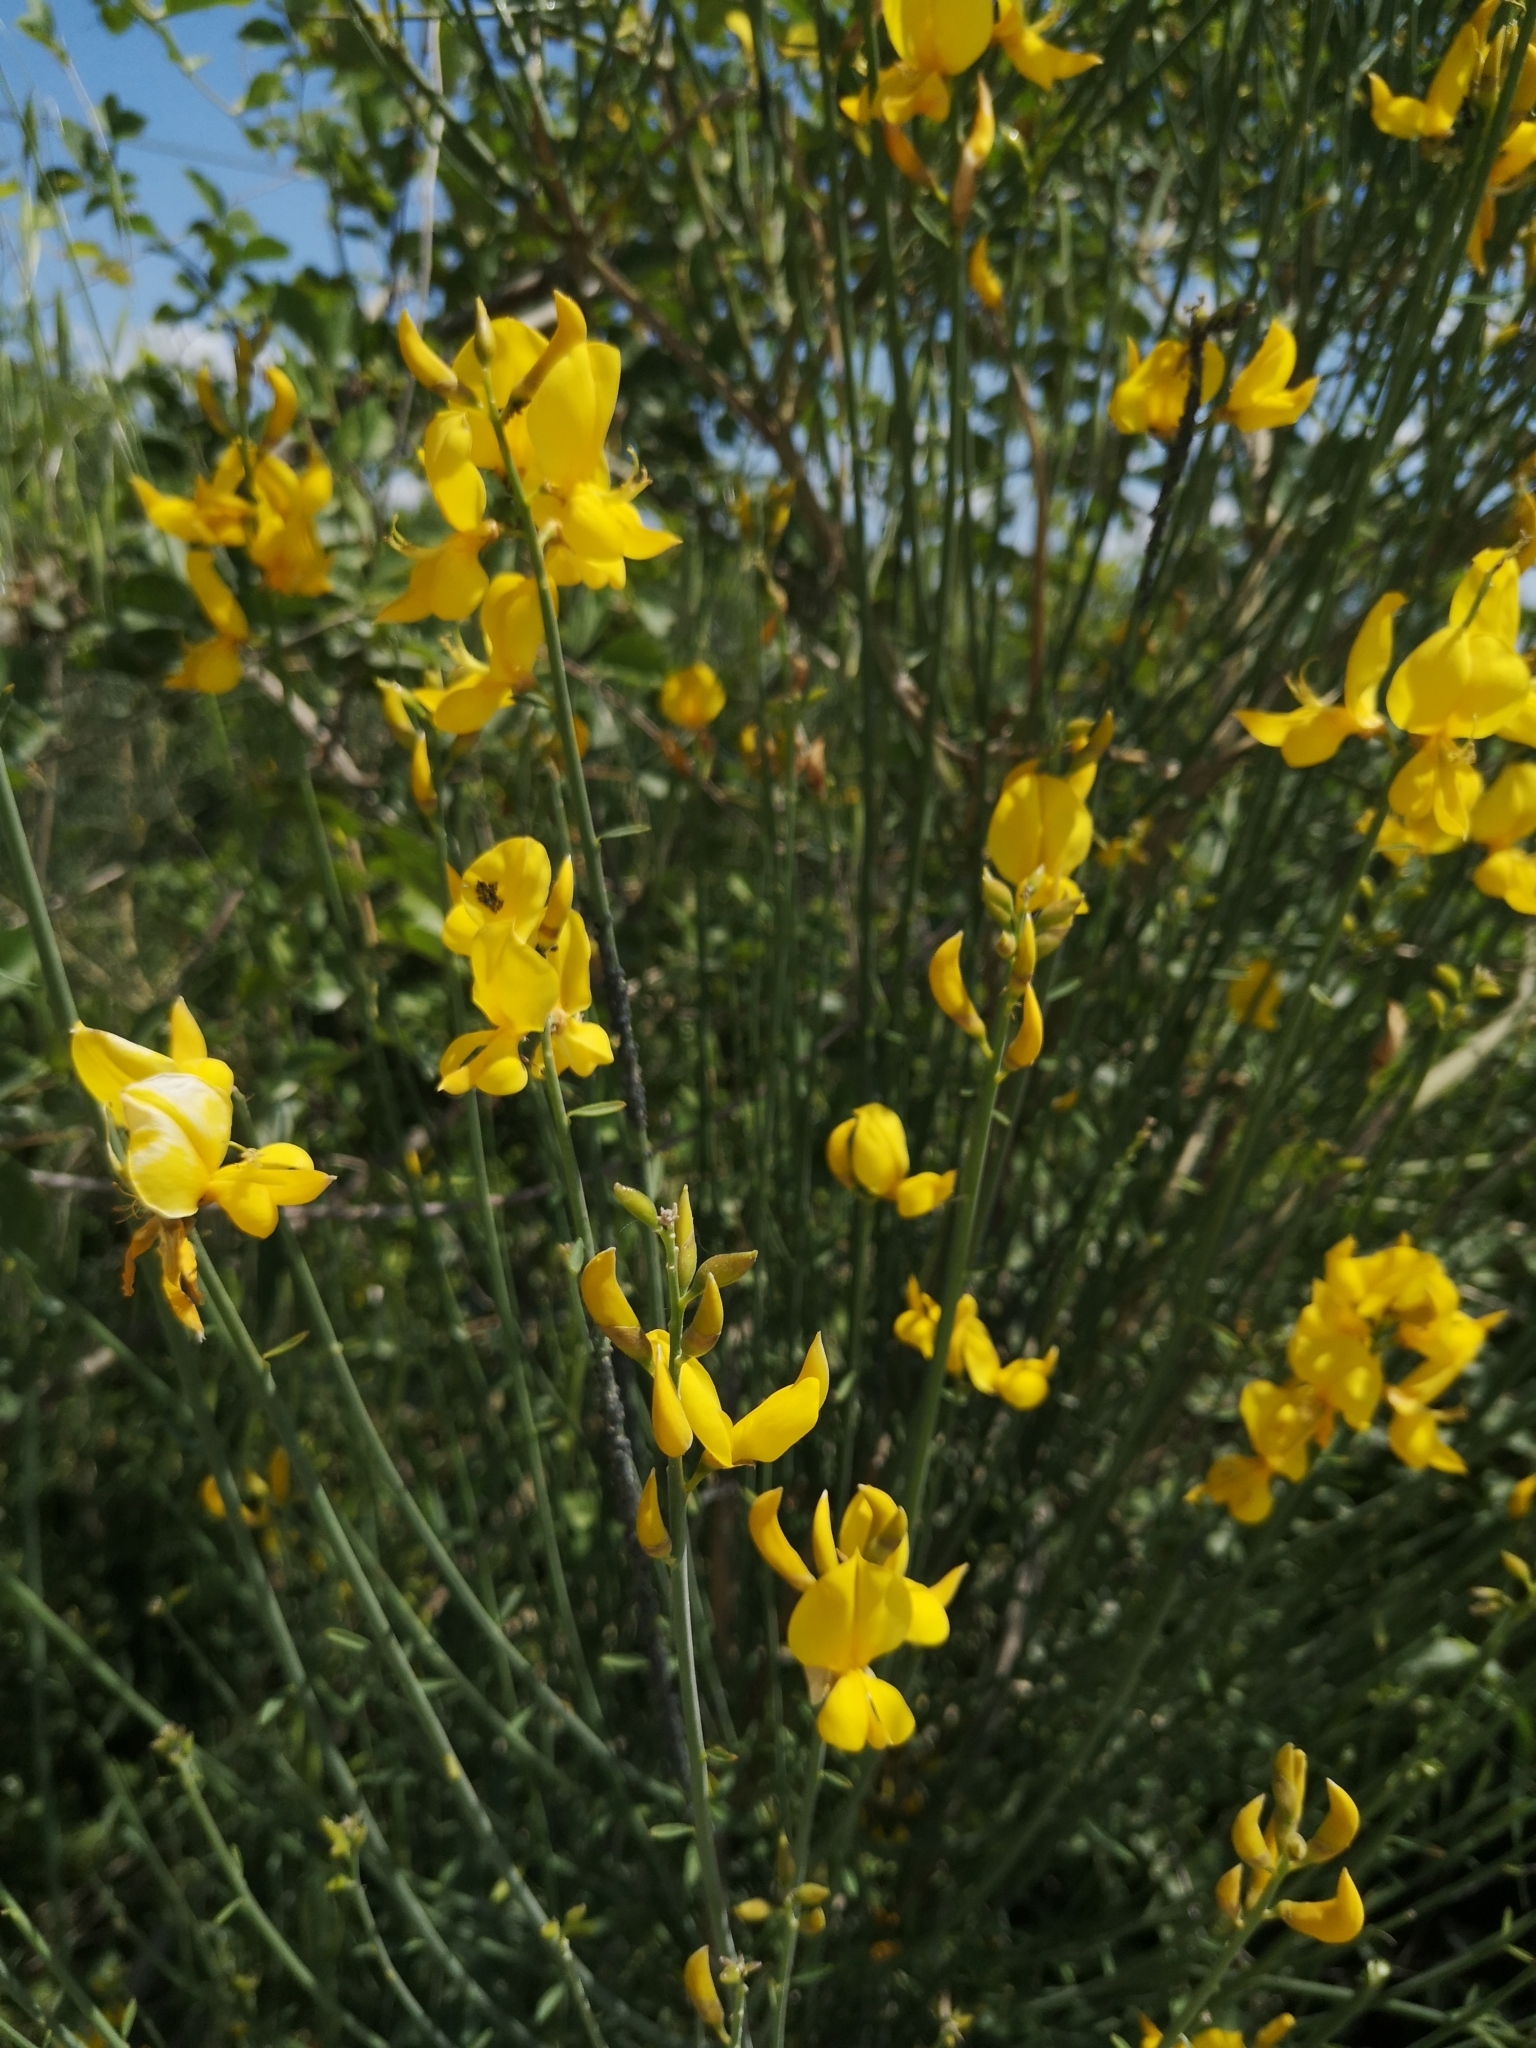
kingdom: Plantae
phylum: Tracheophyta
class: Magnoliopsida
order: Fabales
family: Fabaceae
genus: Spartium
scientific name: Spartium junceum
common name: Spanish broom
